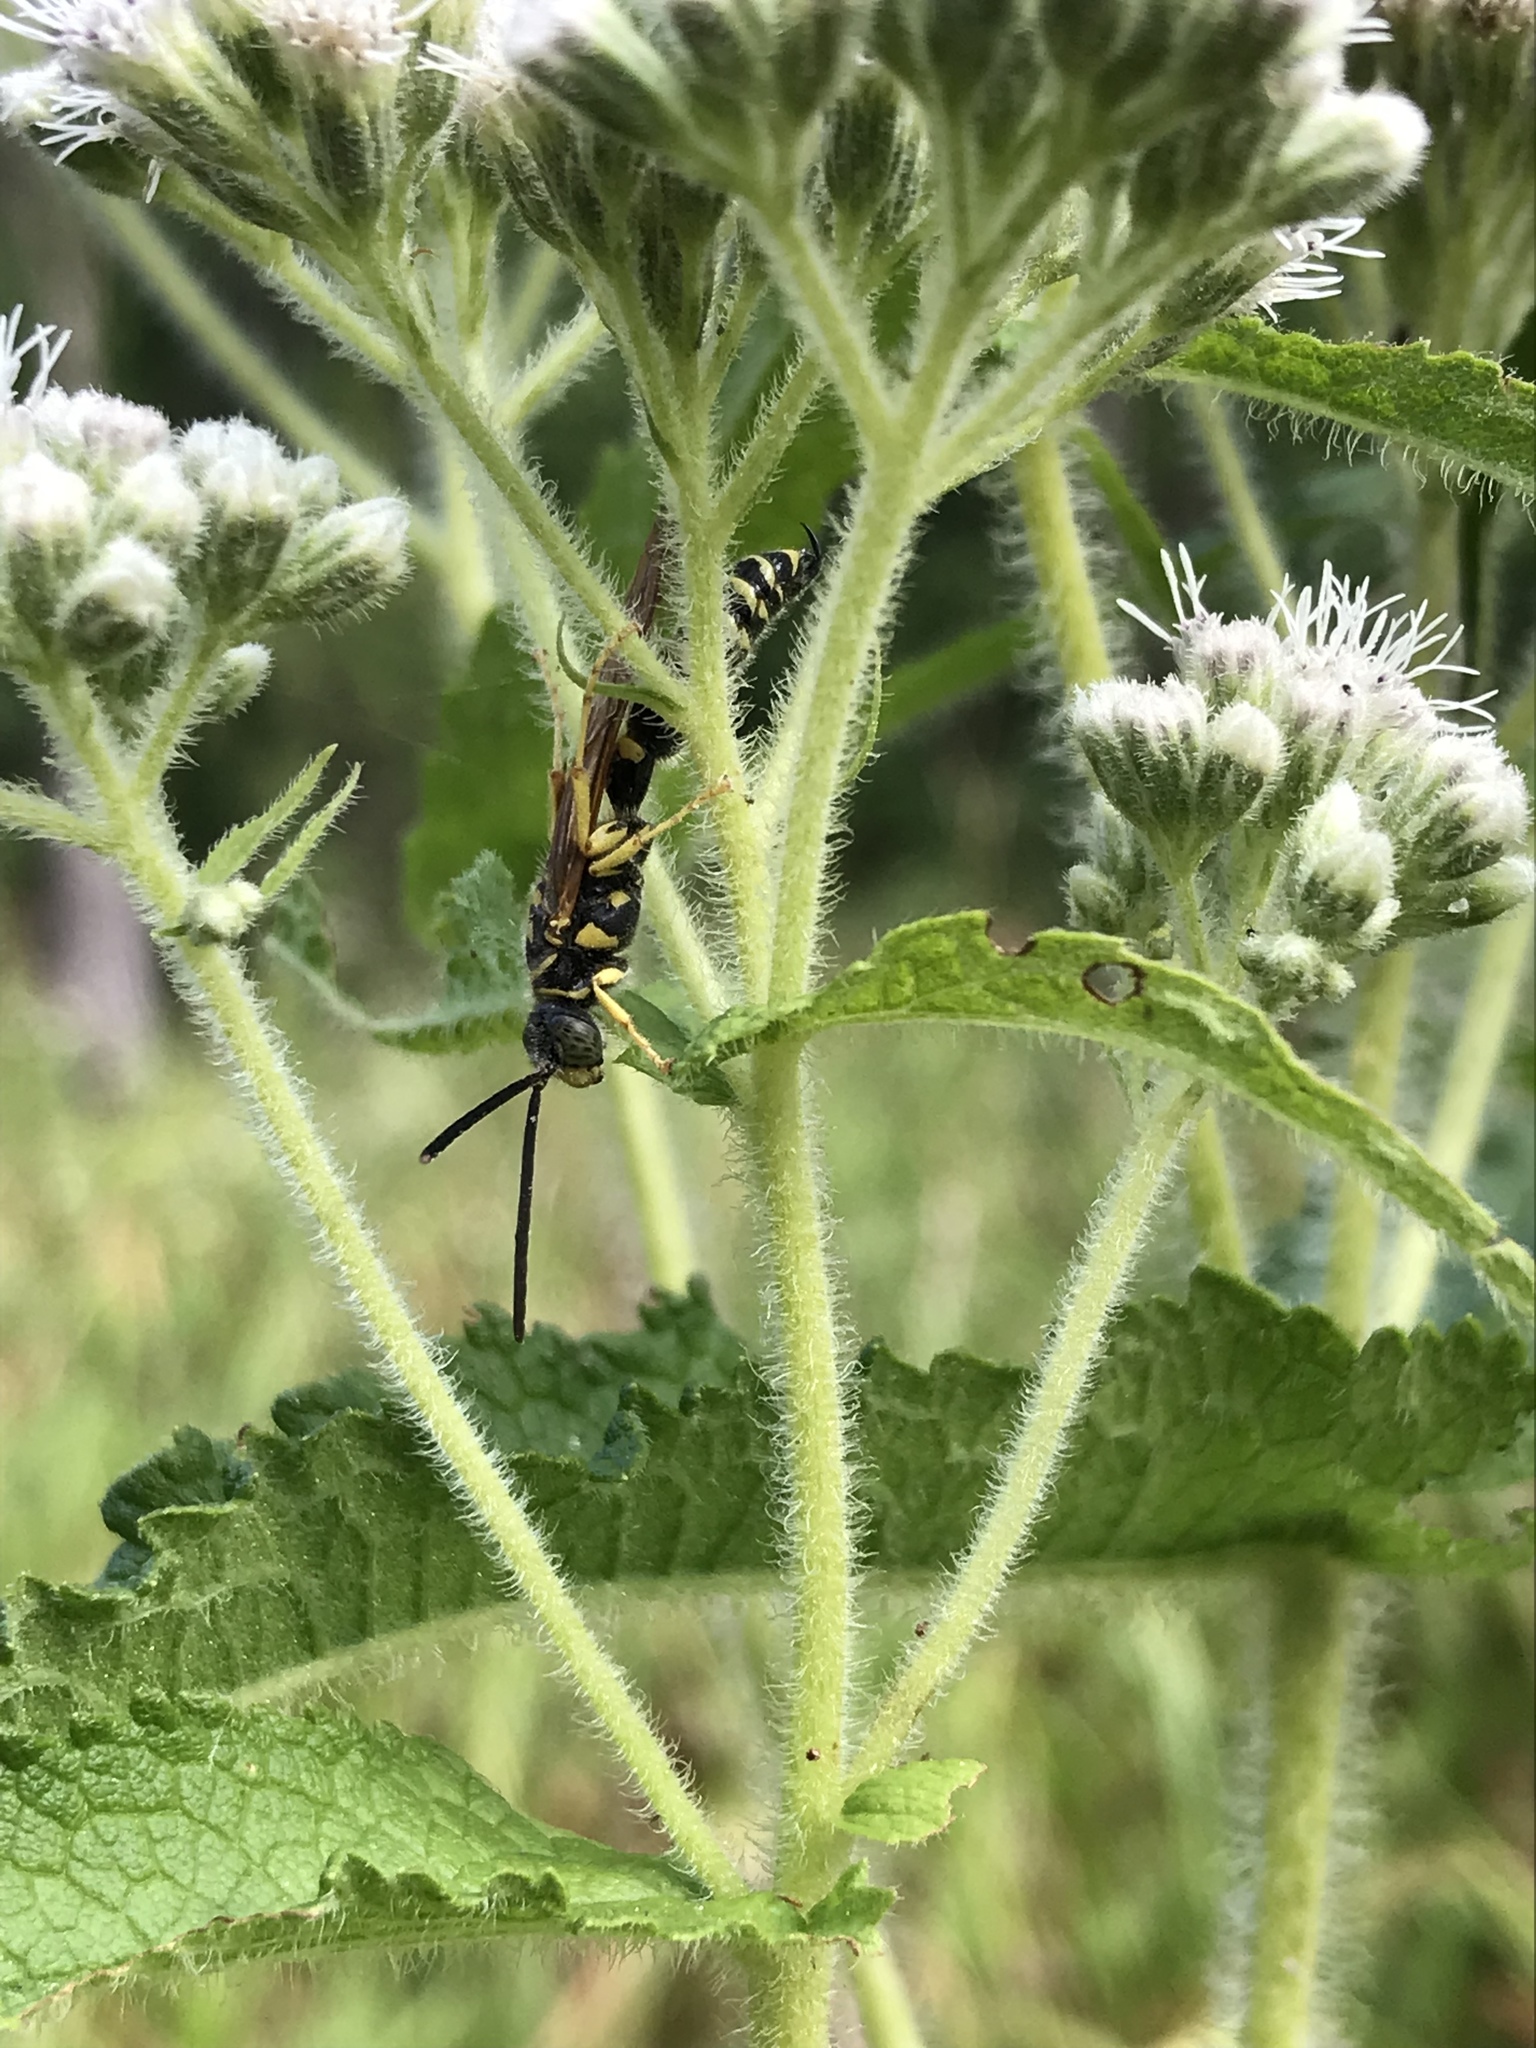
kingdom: Animalia
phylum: Arthropoda
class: Insecta
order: Hymenoptera
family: Tiphiidae
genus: Myzinum
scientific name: Myzinum quinquecinctum
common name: Five-banded thynnid wasp
